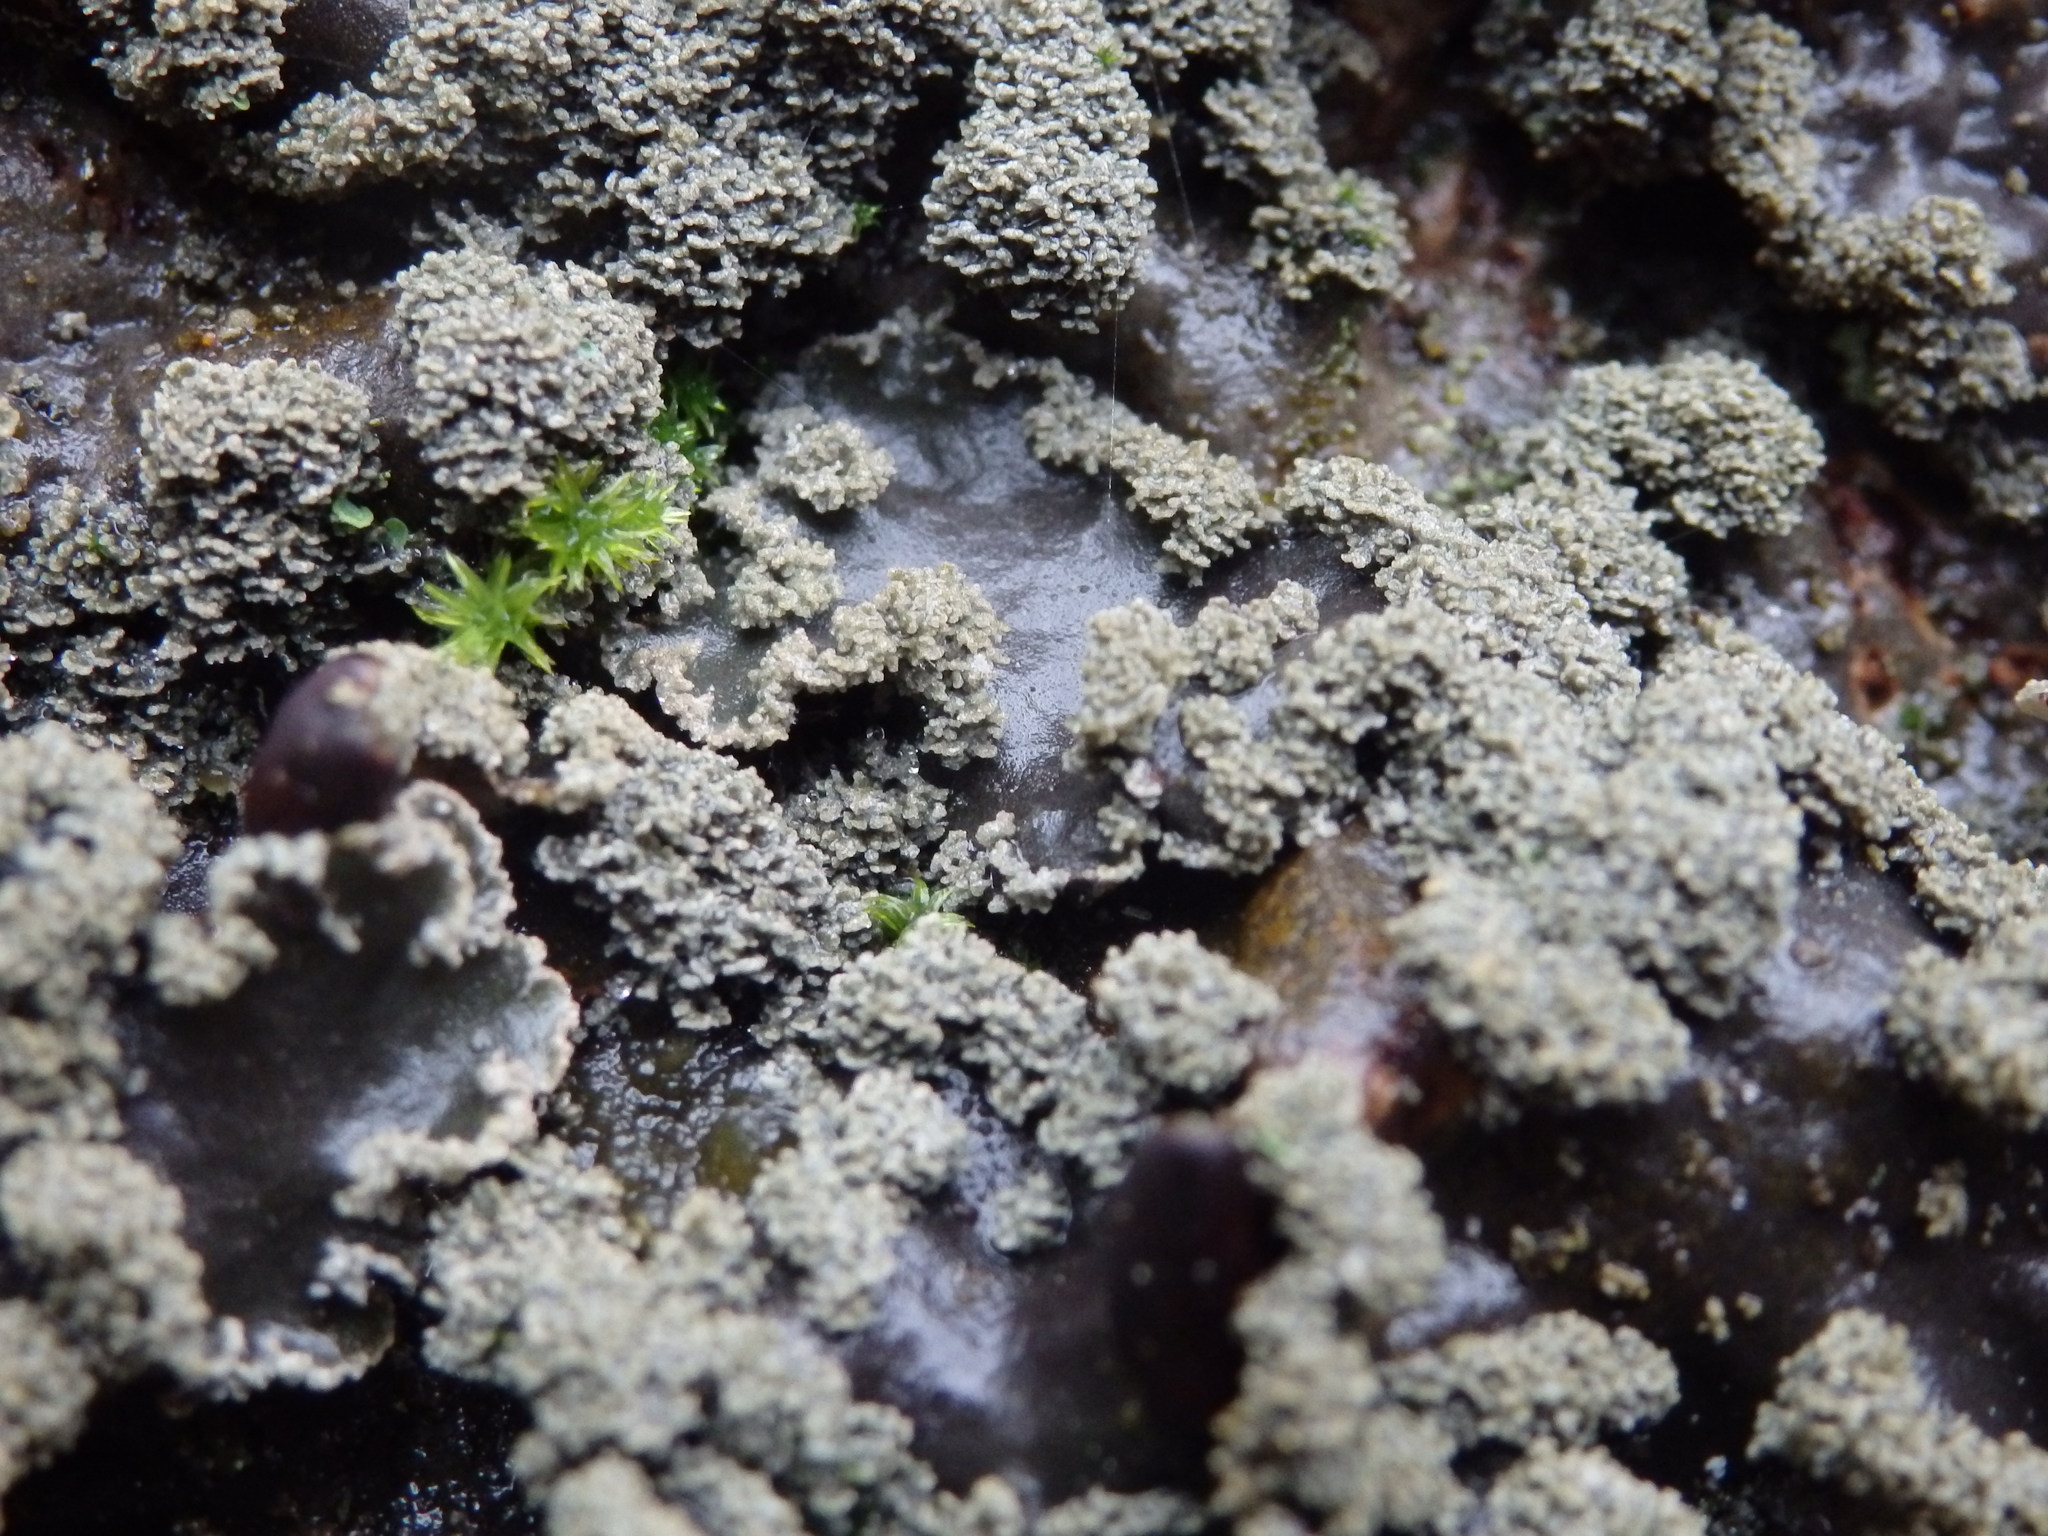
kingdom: Fungi
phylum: Ascomycota
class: Lecanoromycetes
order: Peltigerales
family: Peltigeraceae
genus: Peltigera
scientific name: Peltigera collina
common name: Gritty tree pelt lichen
